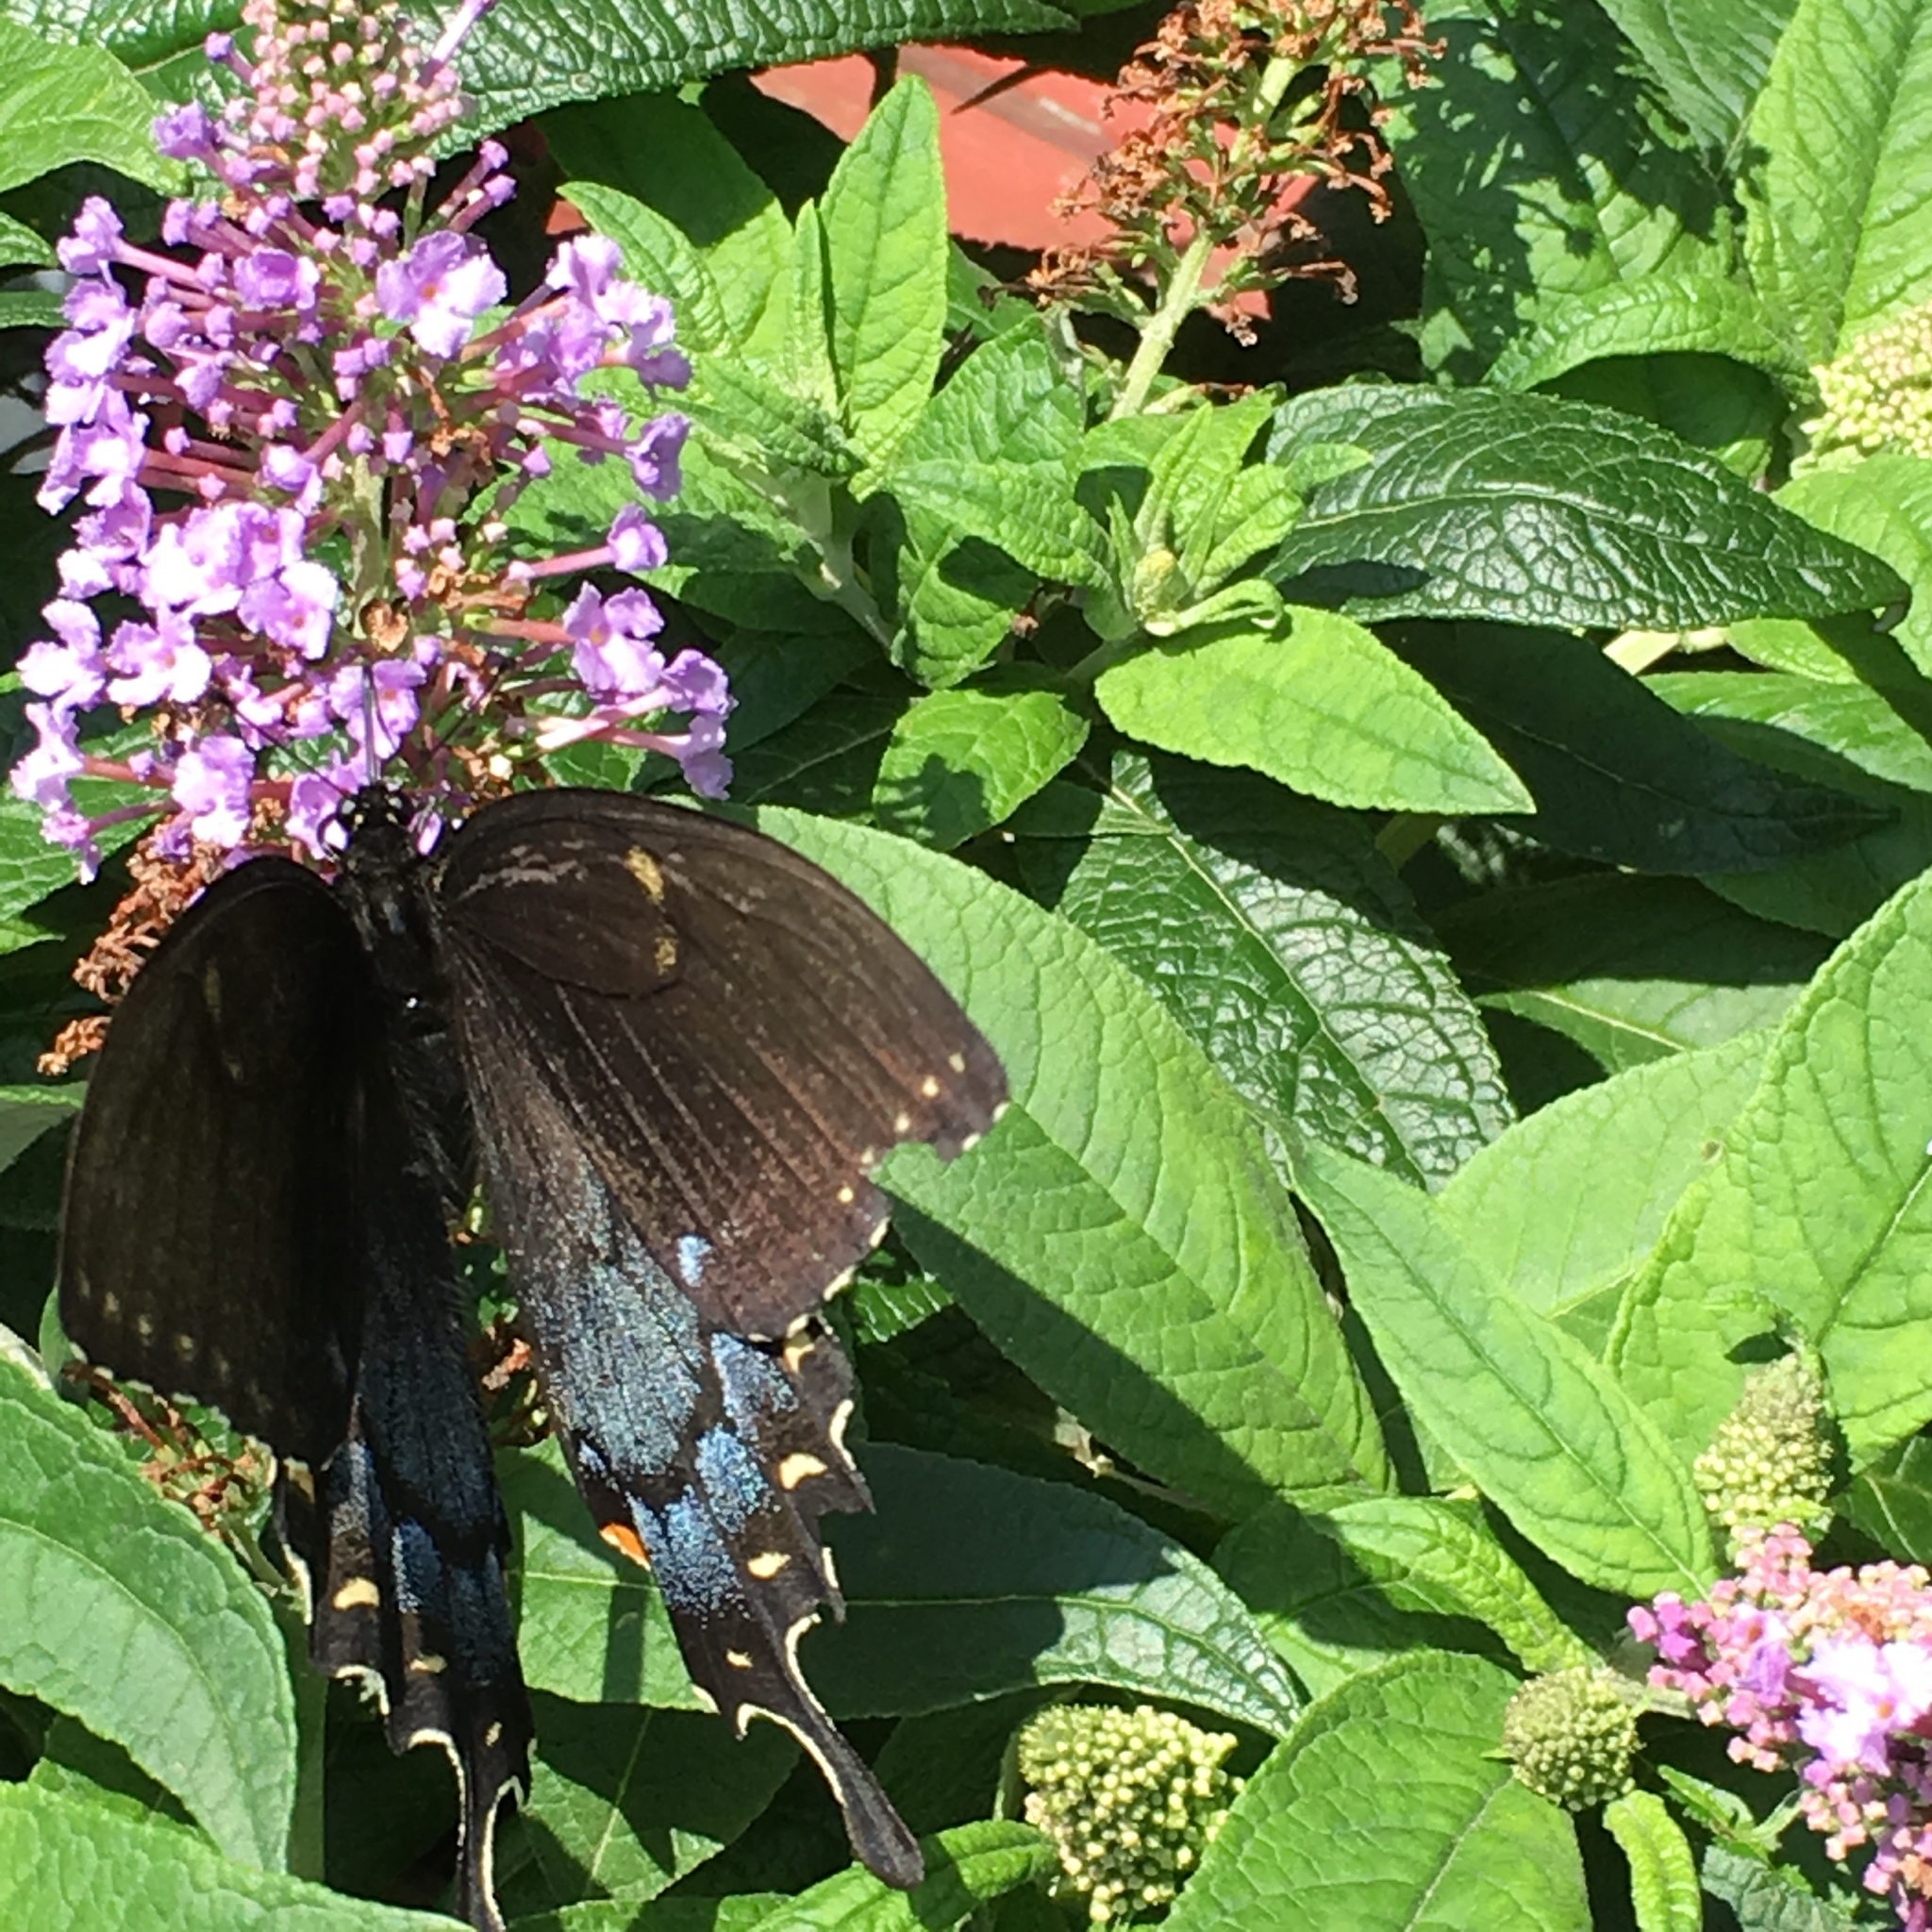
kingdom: Animalia
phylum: Arthropoda
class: Insecta
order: Lepidoptera
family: Papilionidae
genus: Papilio
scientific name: Papilio glaucus
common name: Tiger swallowtail
